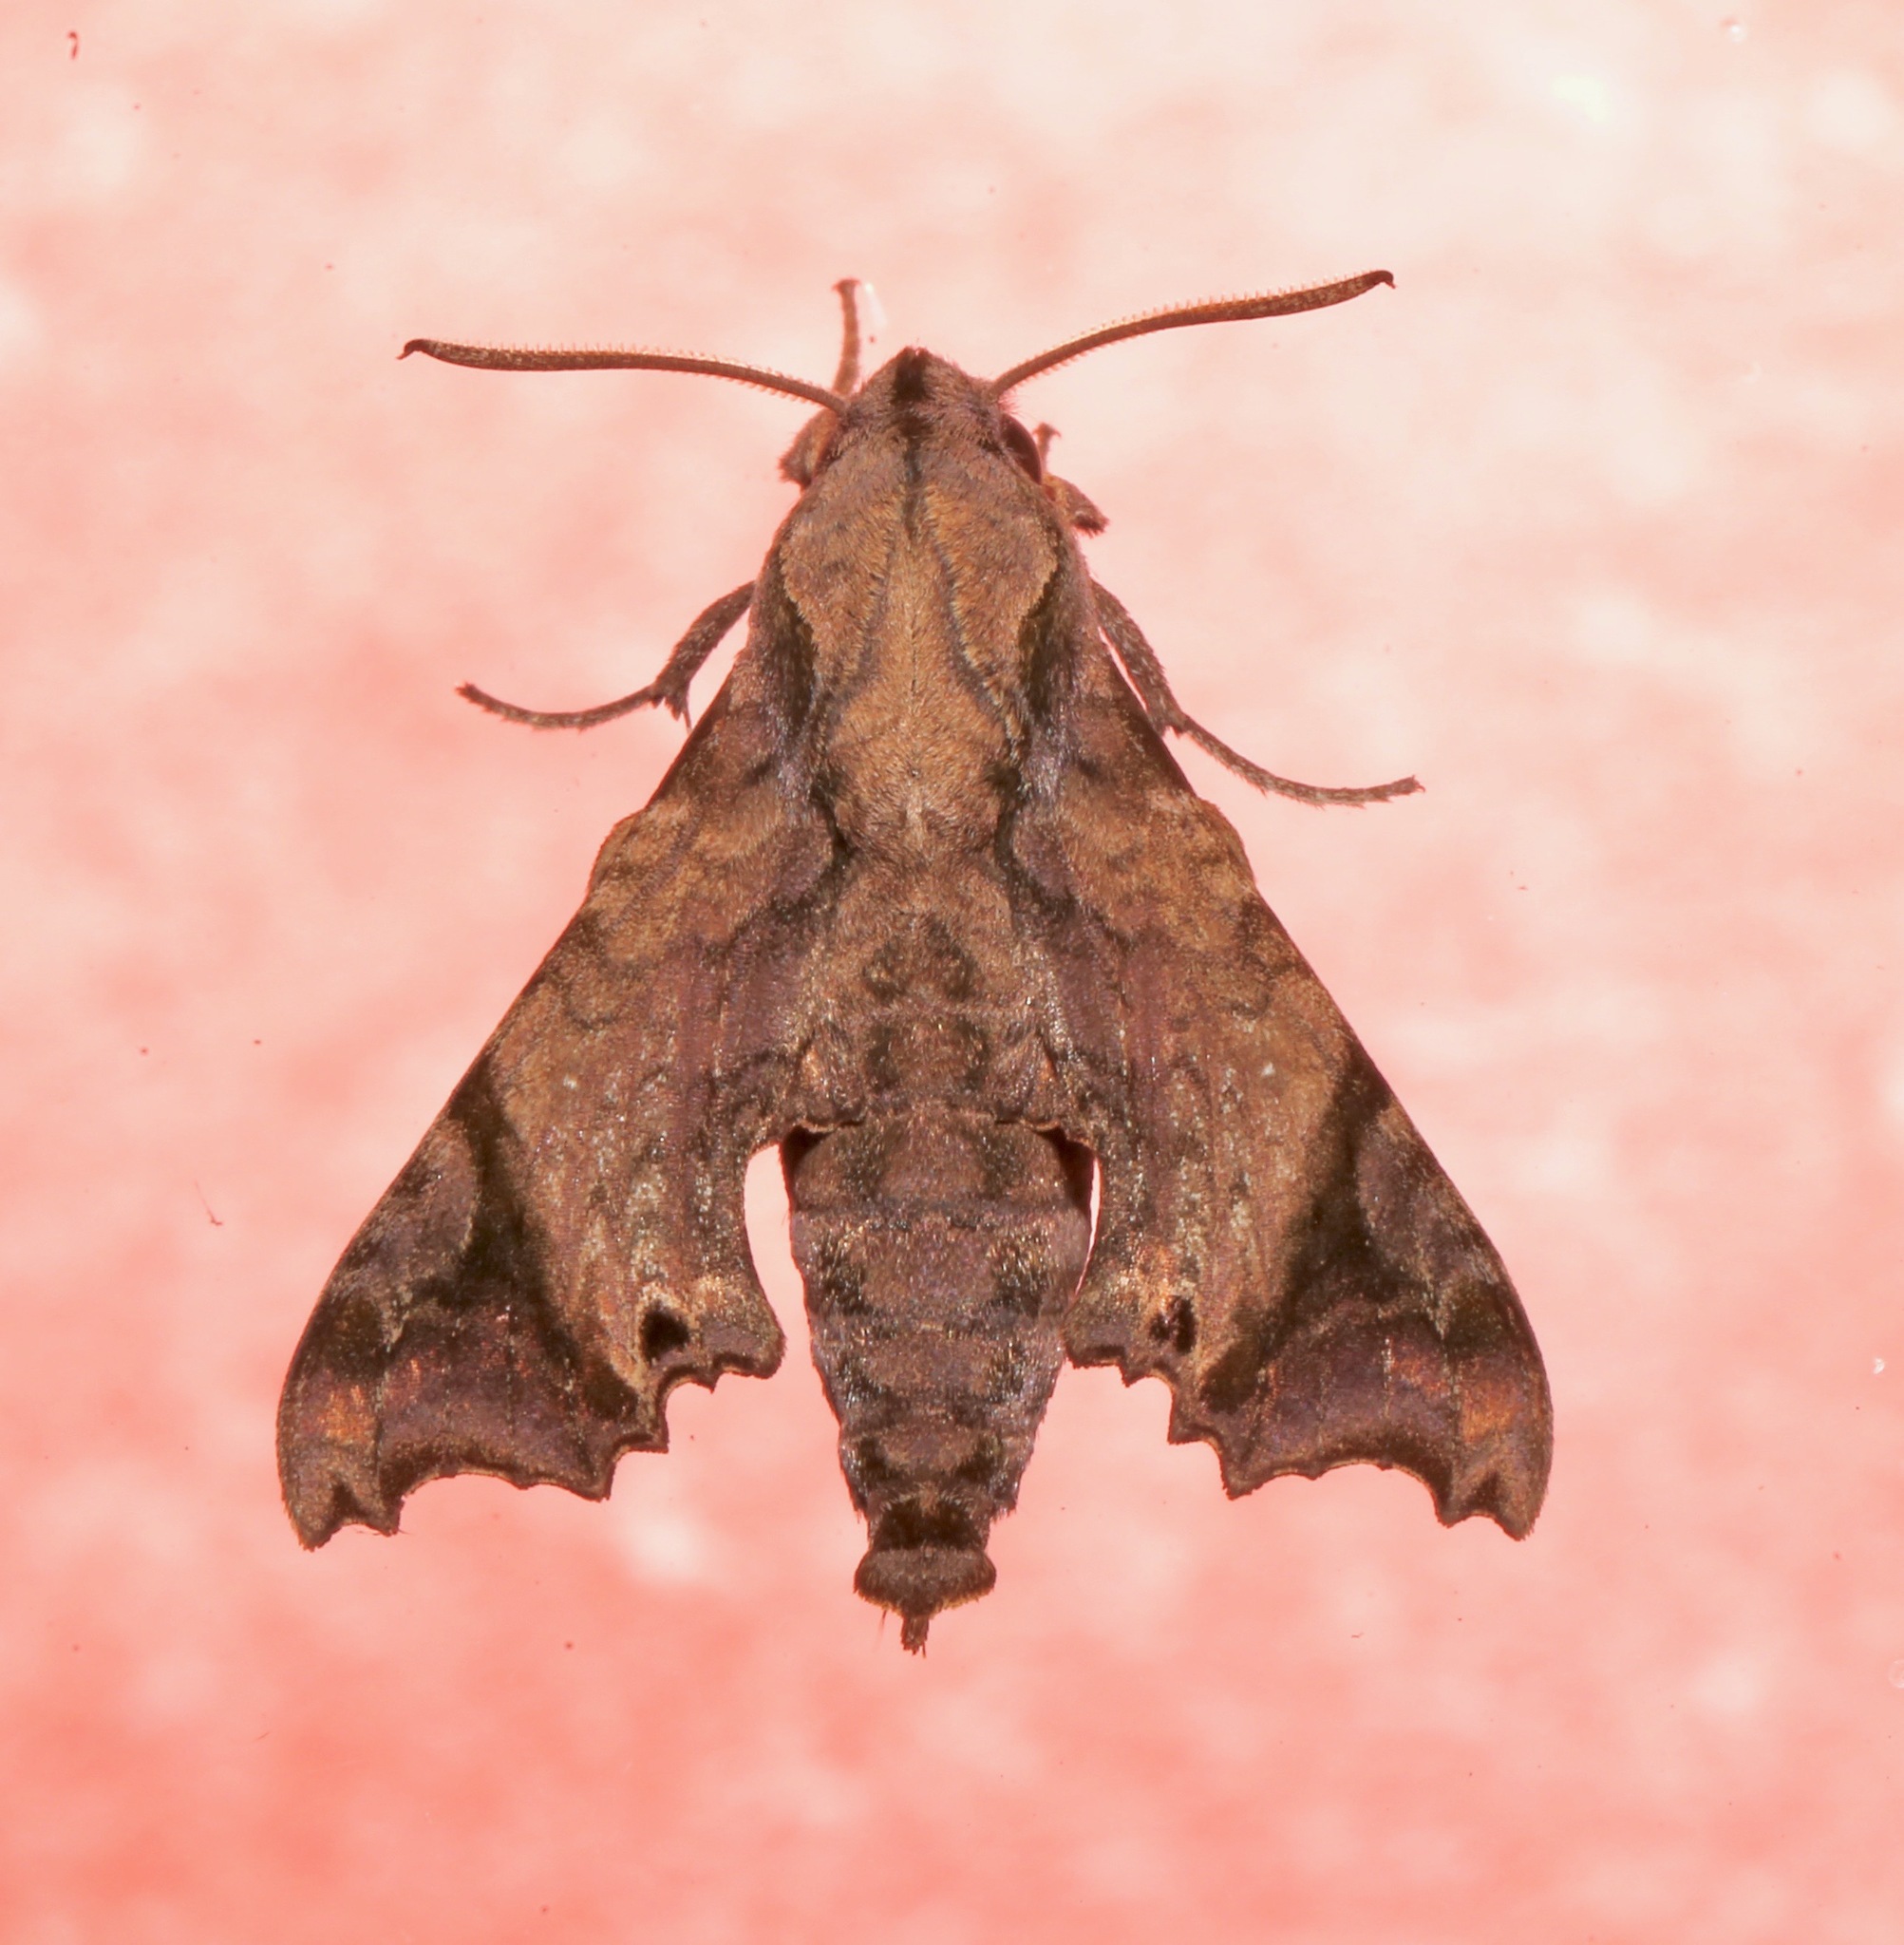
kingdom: Animalia
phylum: Arthropoda
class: Insecta
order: Lepidoptera
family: Sphingidae
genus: Temnora
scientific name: Temnora pseudopylas
